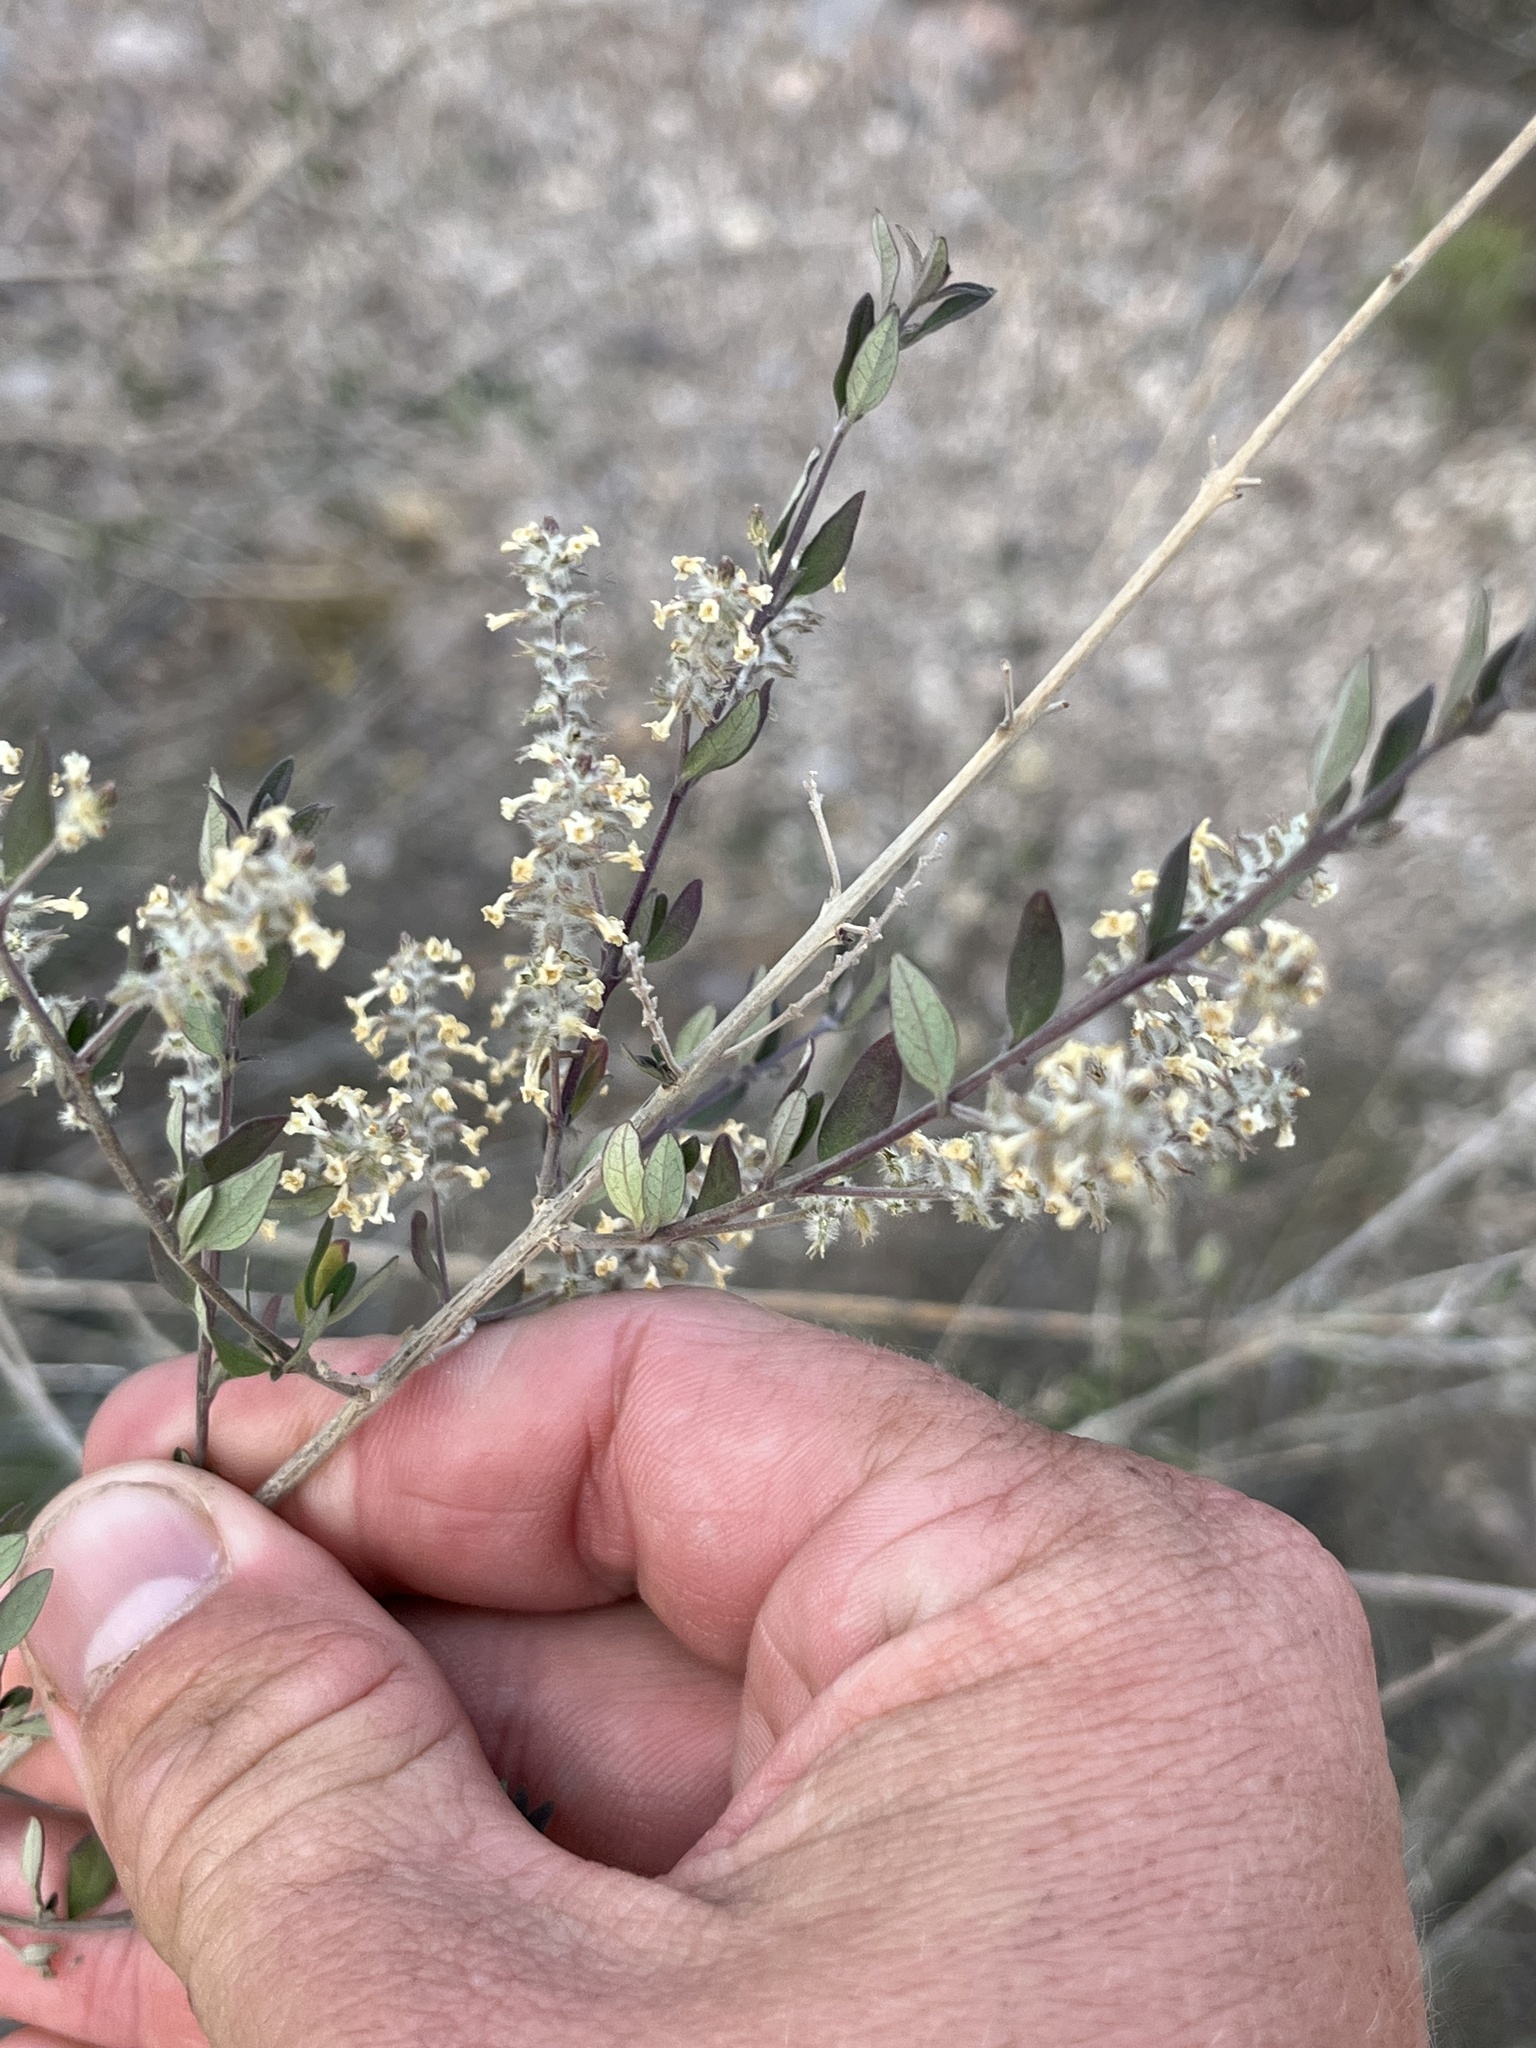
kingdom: Plantae
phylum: Tracheophyta
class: Magnoliopsida
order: Lamiales
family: Verbenaceae
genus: Aloysia
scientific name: Aloysia gratissima
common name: Common bee-brush
